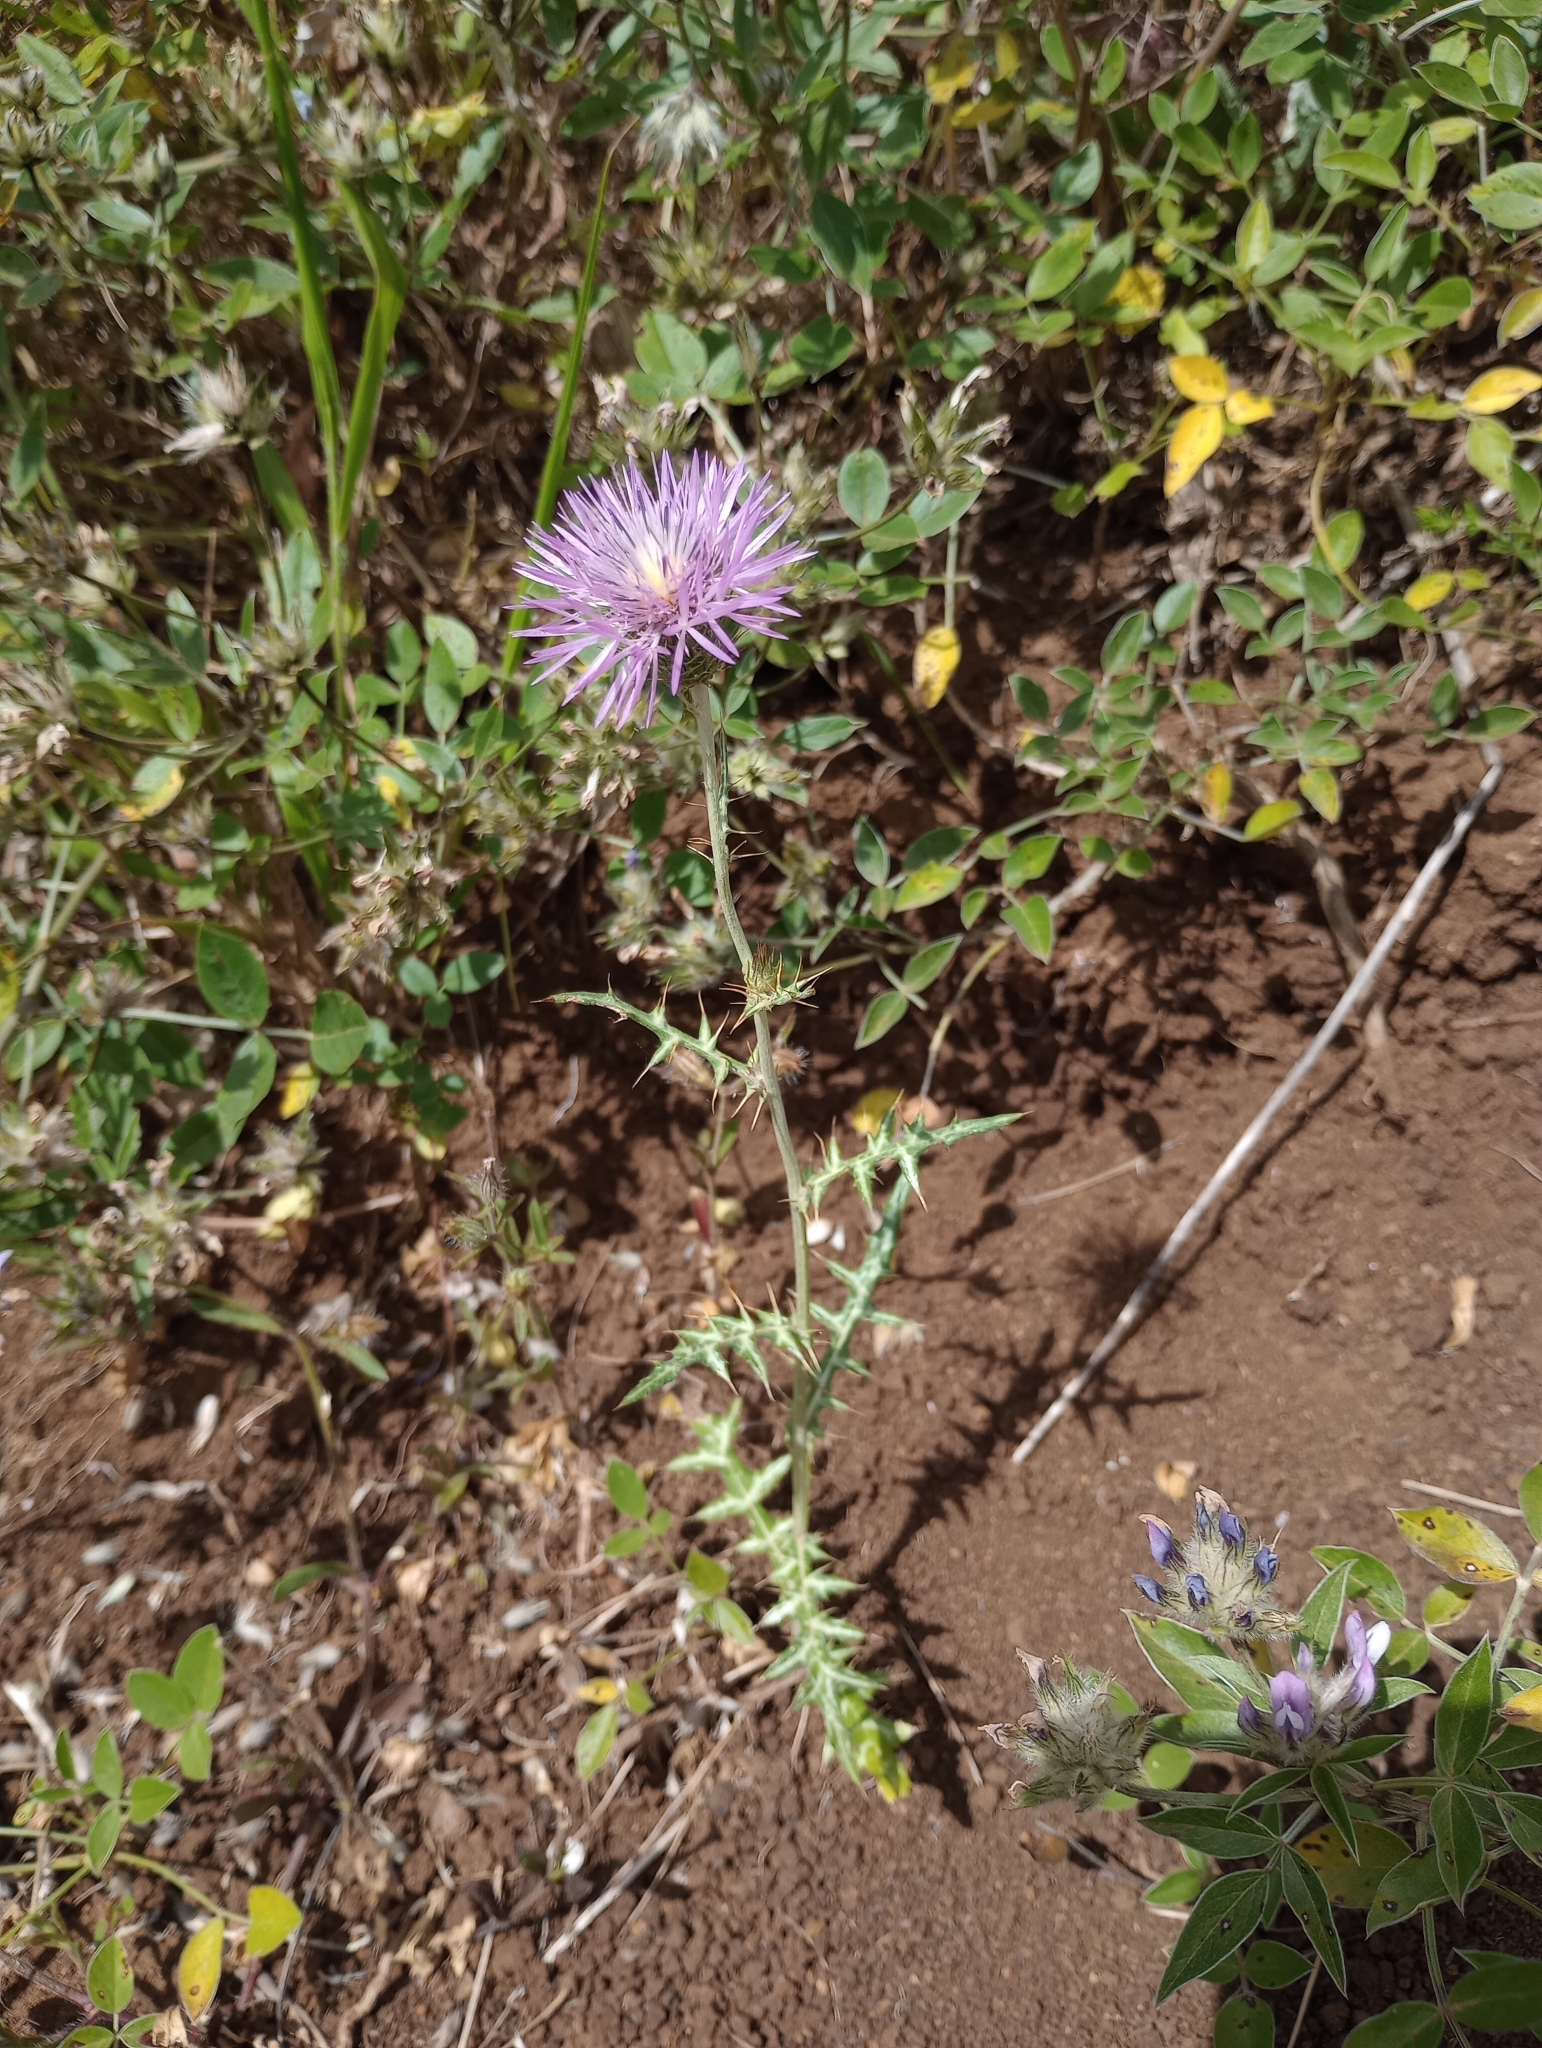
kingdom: Plantae
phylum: Tracheophyta
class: Magnoliopsida
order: Asterales
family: Asteraceae
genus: Galactites
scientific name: Galactites tomentosa
